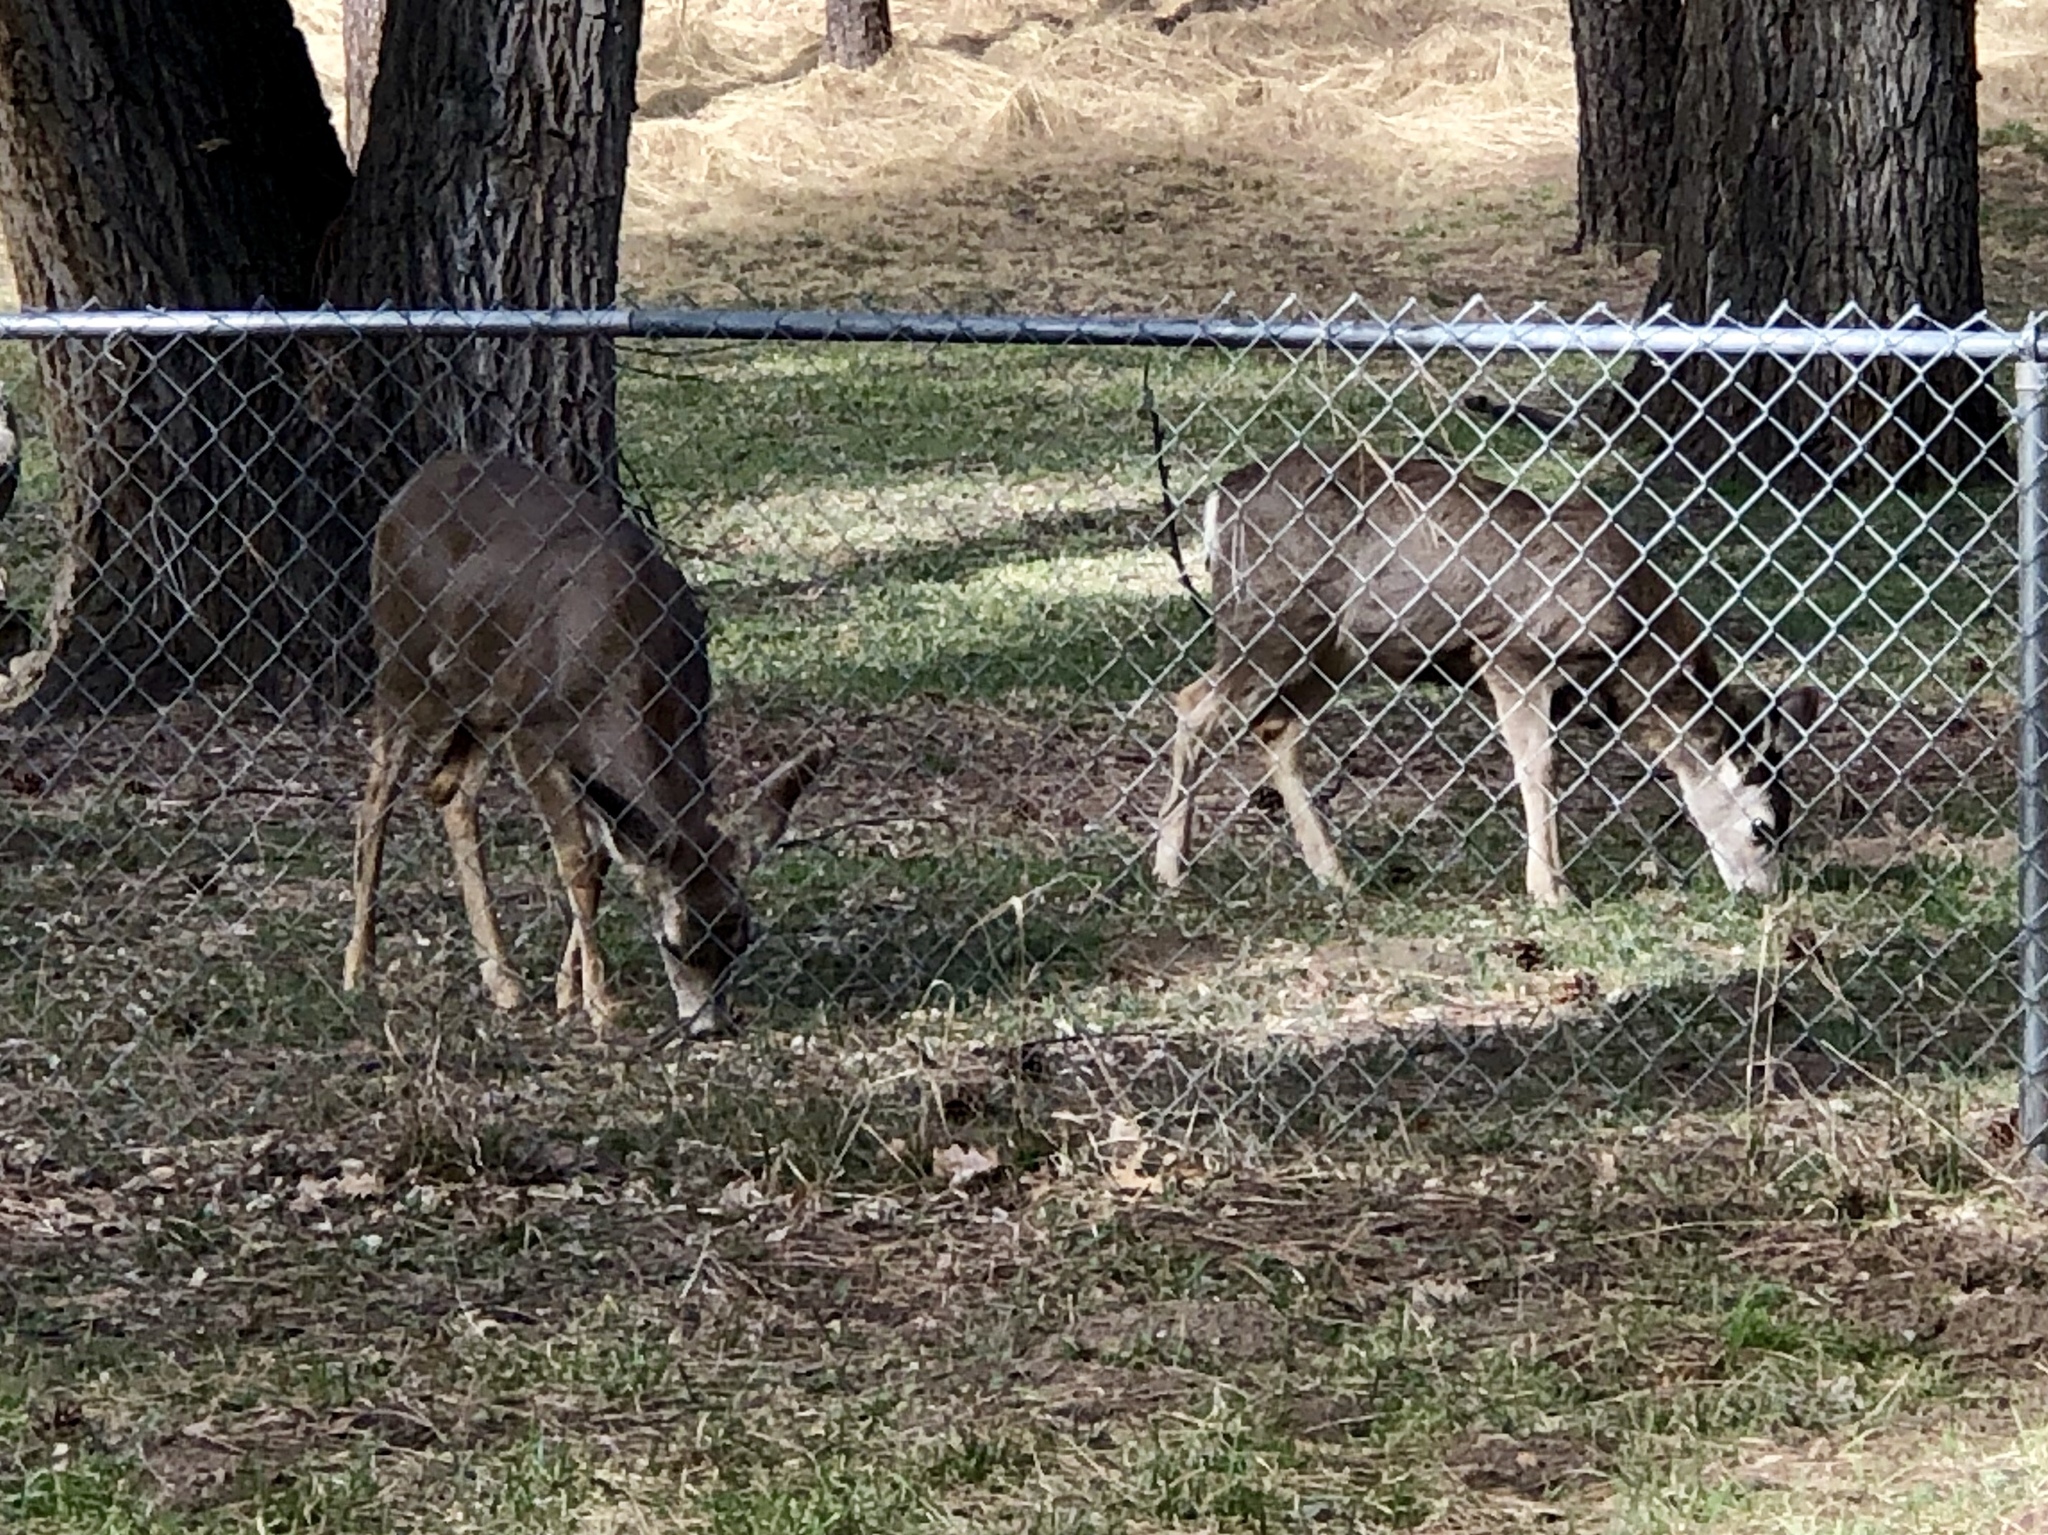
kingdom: Animalia
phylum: Chordata
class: Mammalia
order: Artiodactyla
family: Cervidae
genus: Odocoileus
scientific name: Odocoileus hemionus
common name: Mule deer
